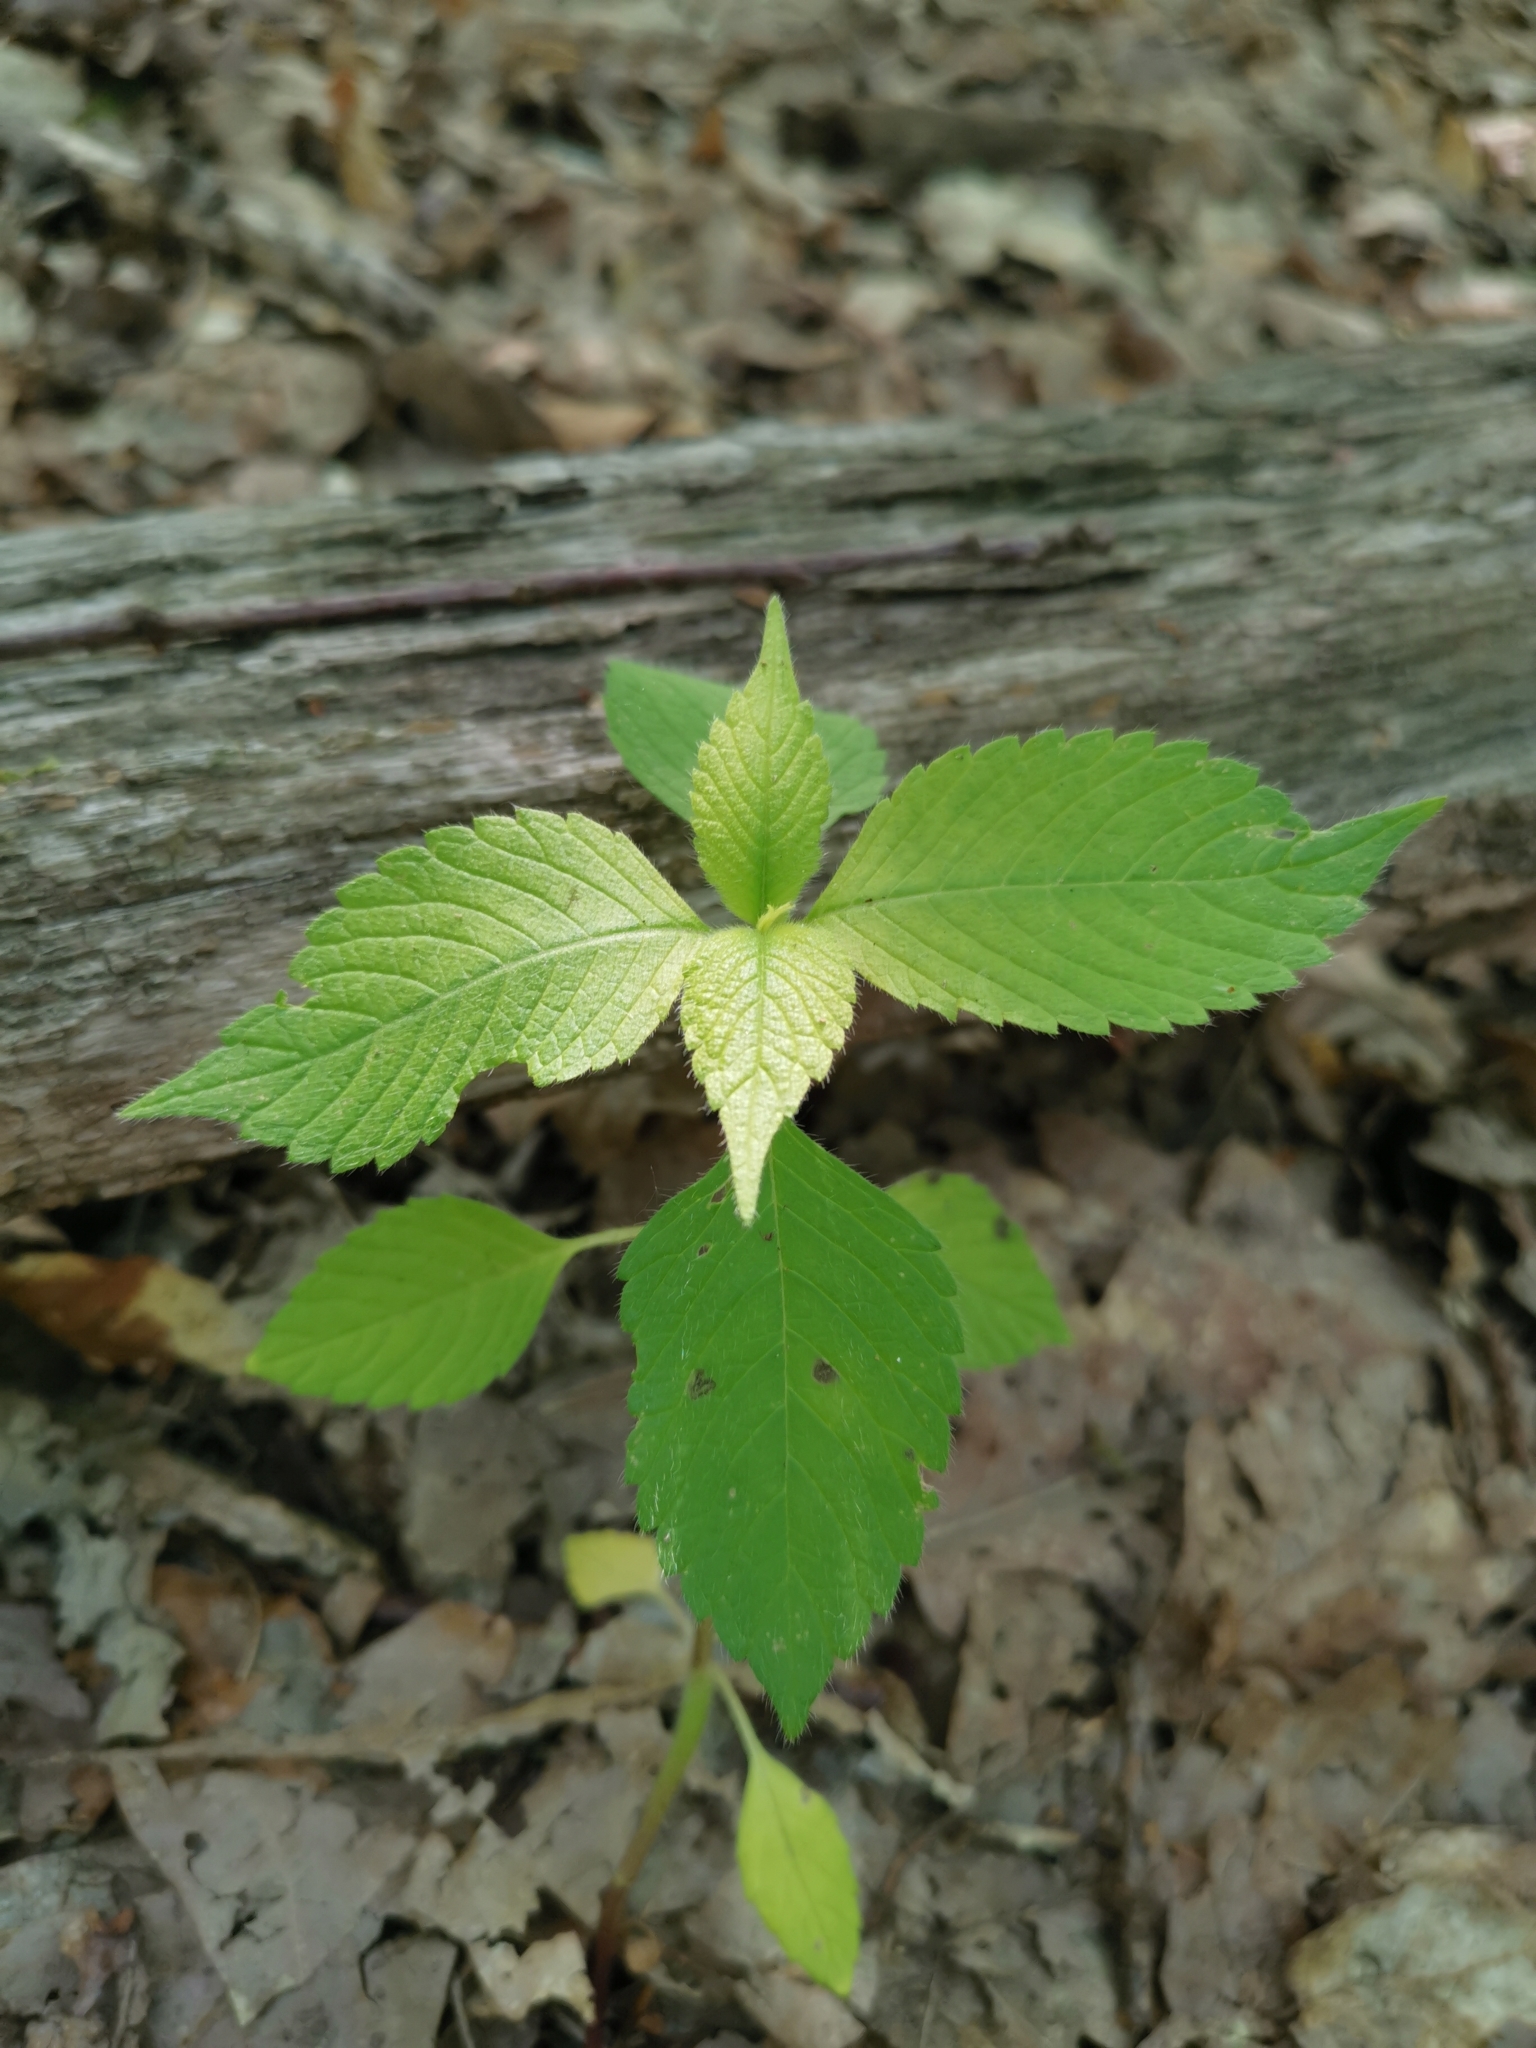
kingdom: Plantae
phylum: Tracheophyta
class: Magnoliopsida
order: Lamiales
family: Lamiaceae
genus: Galeopsis
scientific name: Galeopsis tetrahit
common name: Common hemp-nettle
